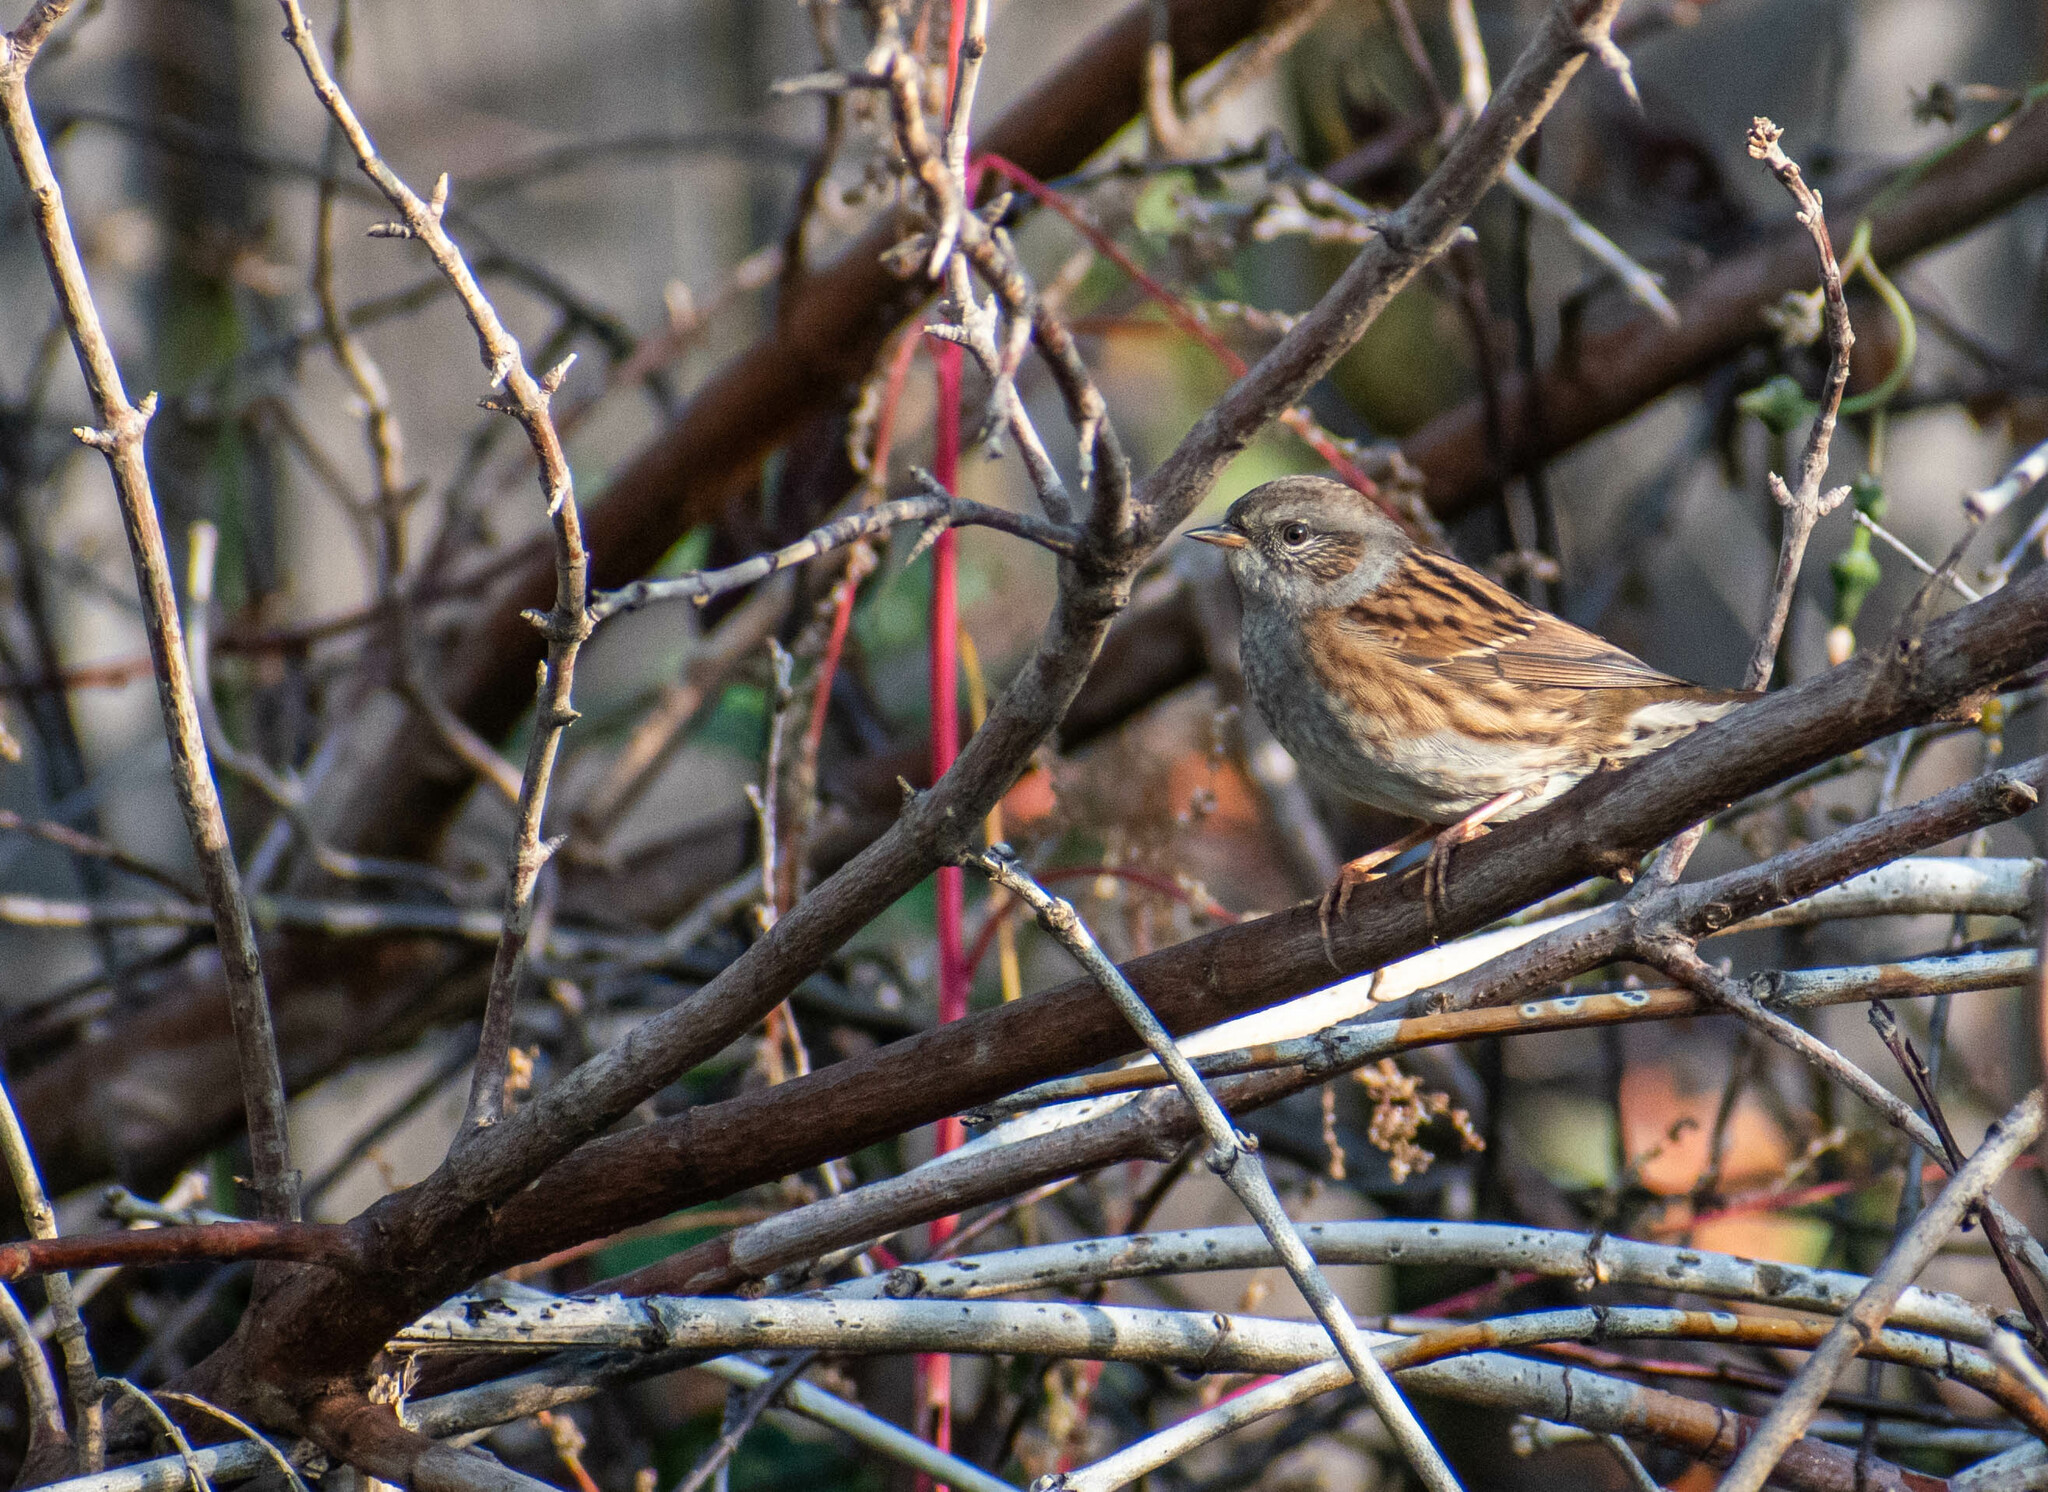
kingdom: Animalia
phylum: Chordata
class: Aves
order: Passeriformes
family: Prunellidae
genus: Prunella
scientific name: Prunella modularis
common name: Dunnock
